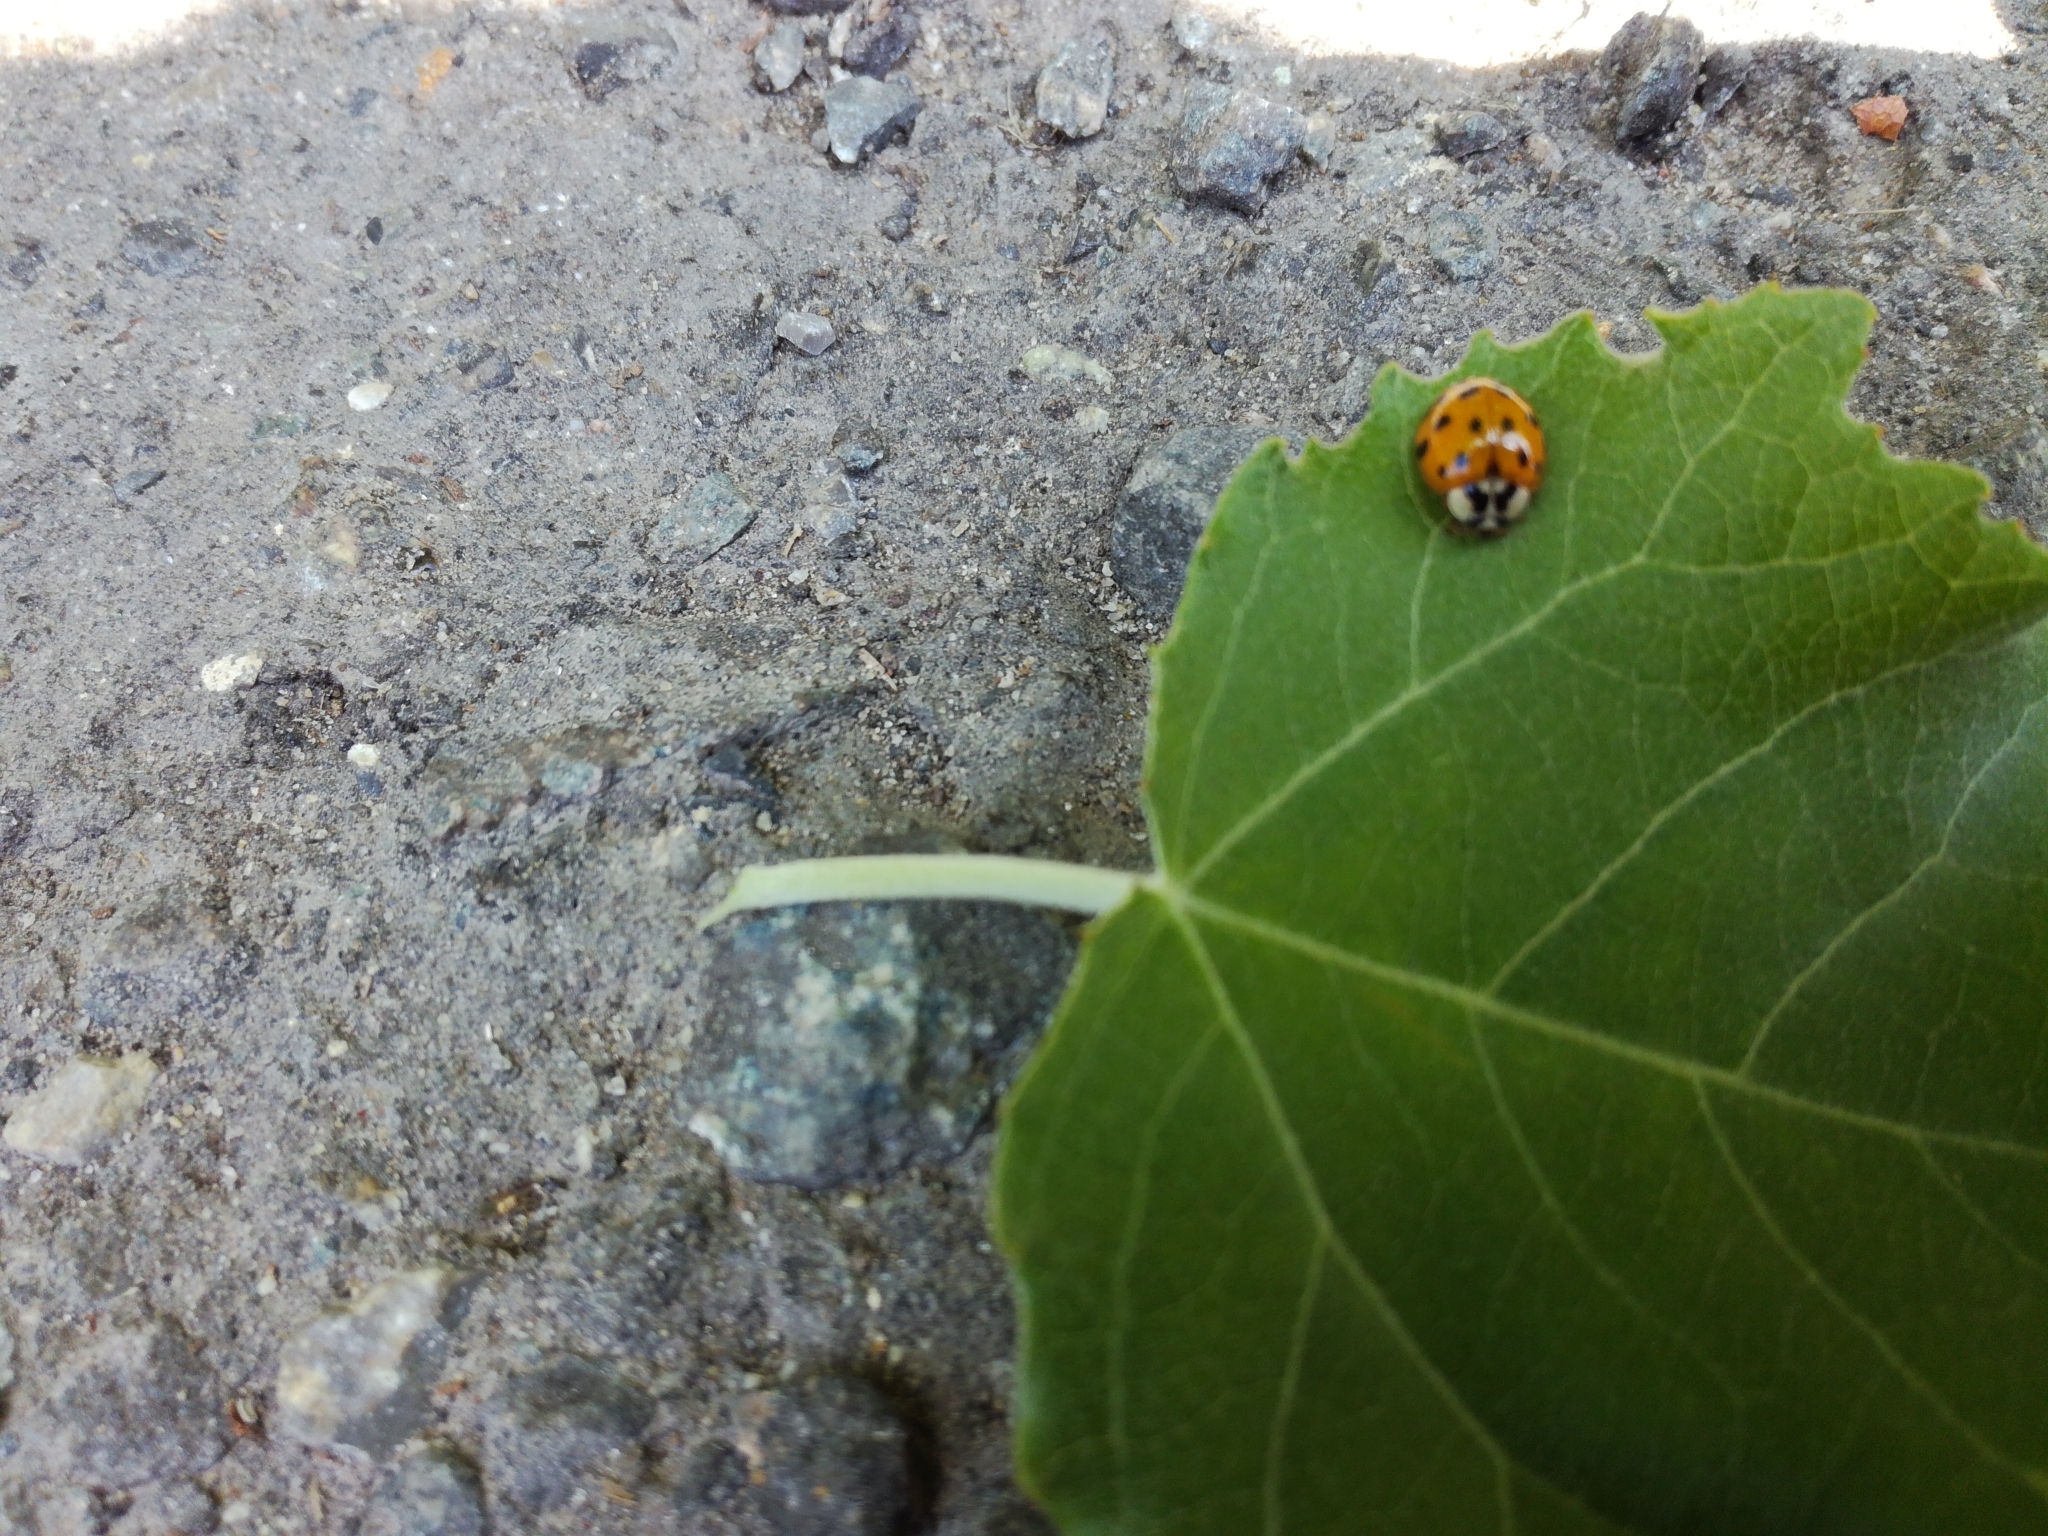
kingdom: Animalia
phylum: Arthropoda
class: Insecta
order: Coleoptera
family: Coccinellidae
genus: Harmonia
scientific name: Harmonia axyridis
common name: Harlequin ladybird
